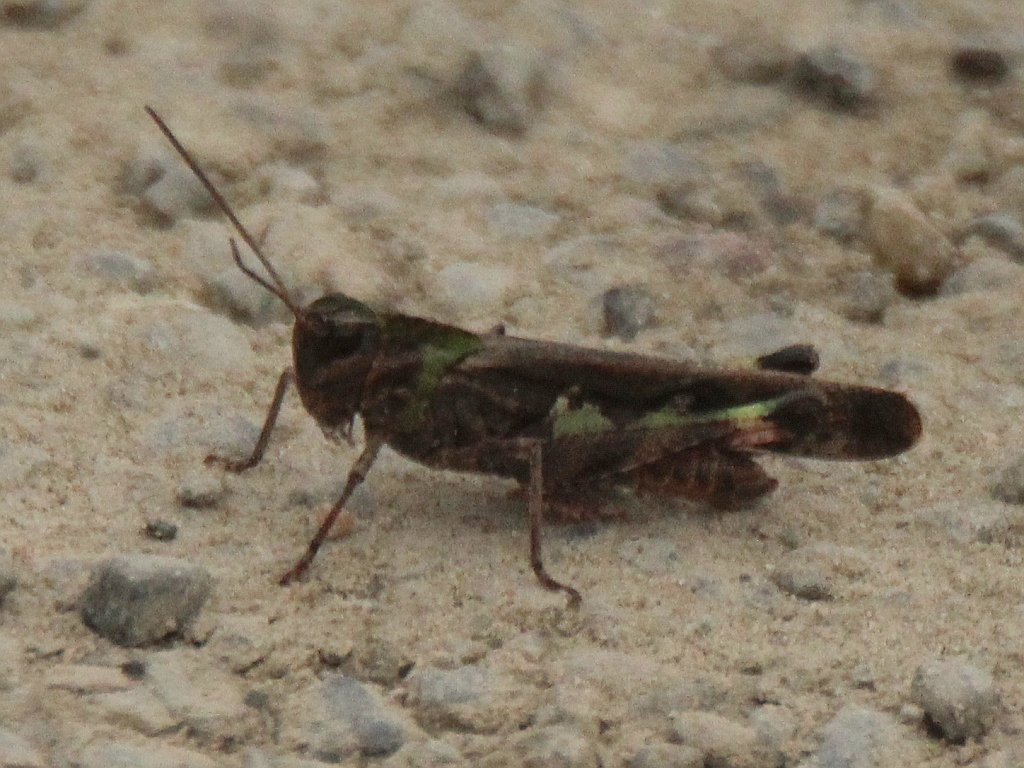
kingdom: Animalia
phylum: Arthropoda
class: Insecta
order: Orthoptera
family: Acrididae
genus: Oedaleus
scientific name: Oedaleus infernalis
